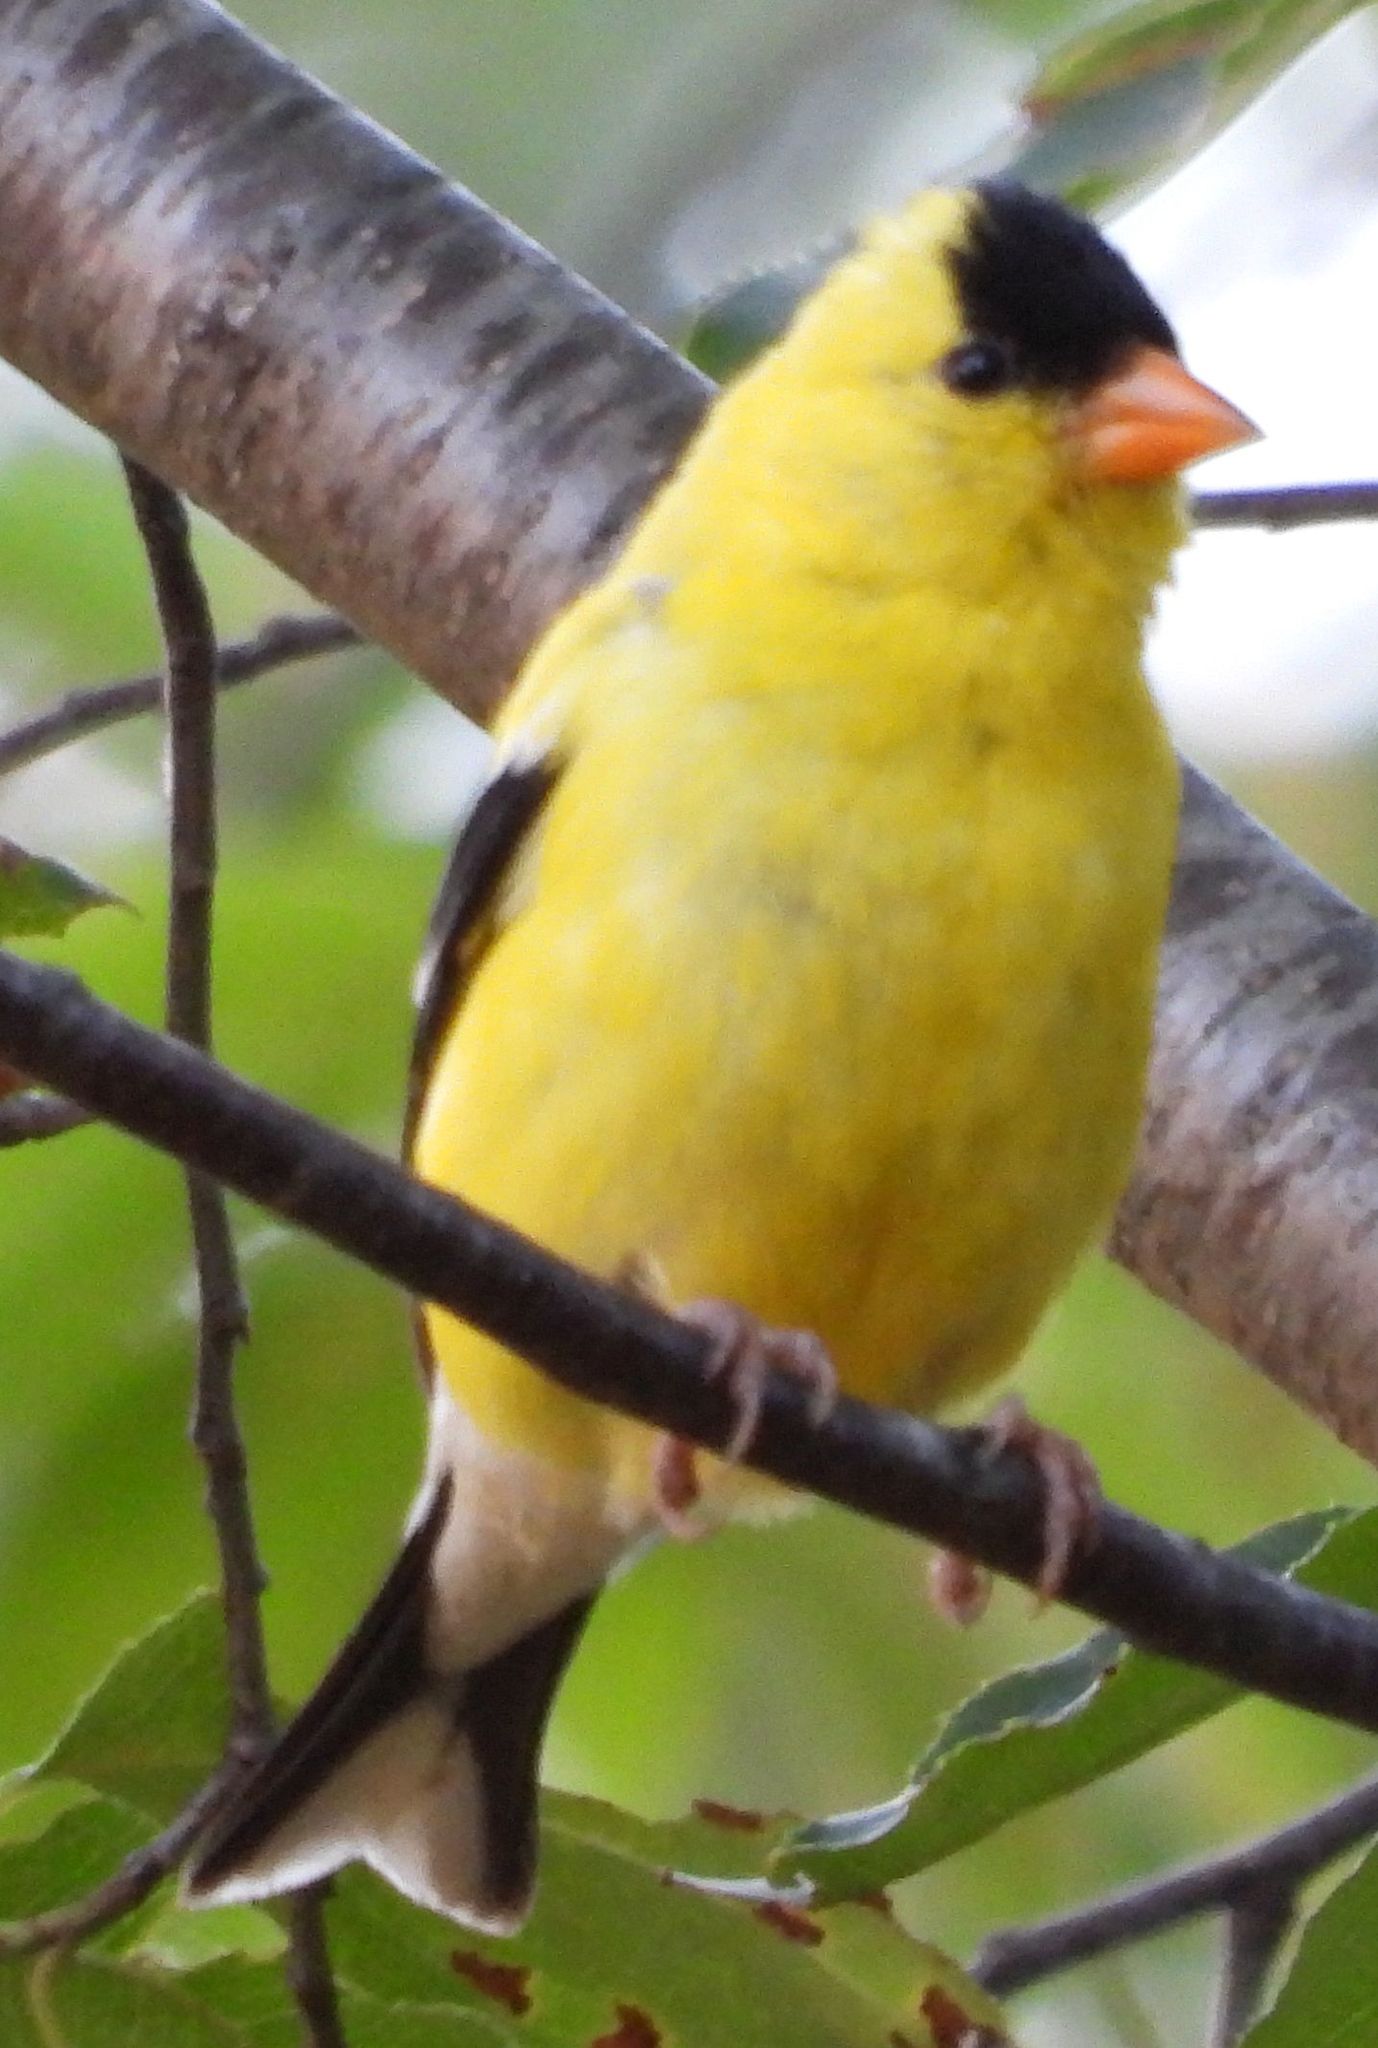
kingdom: Animalia
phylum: Chordata
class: Aves
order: Passeriformes
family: Fringillidae
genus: Spinus
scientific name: Spinus tristis
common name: American goldfinch
